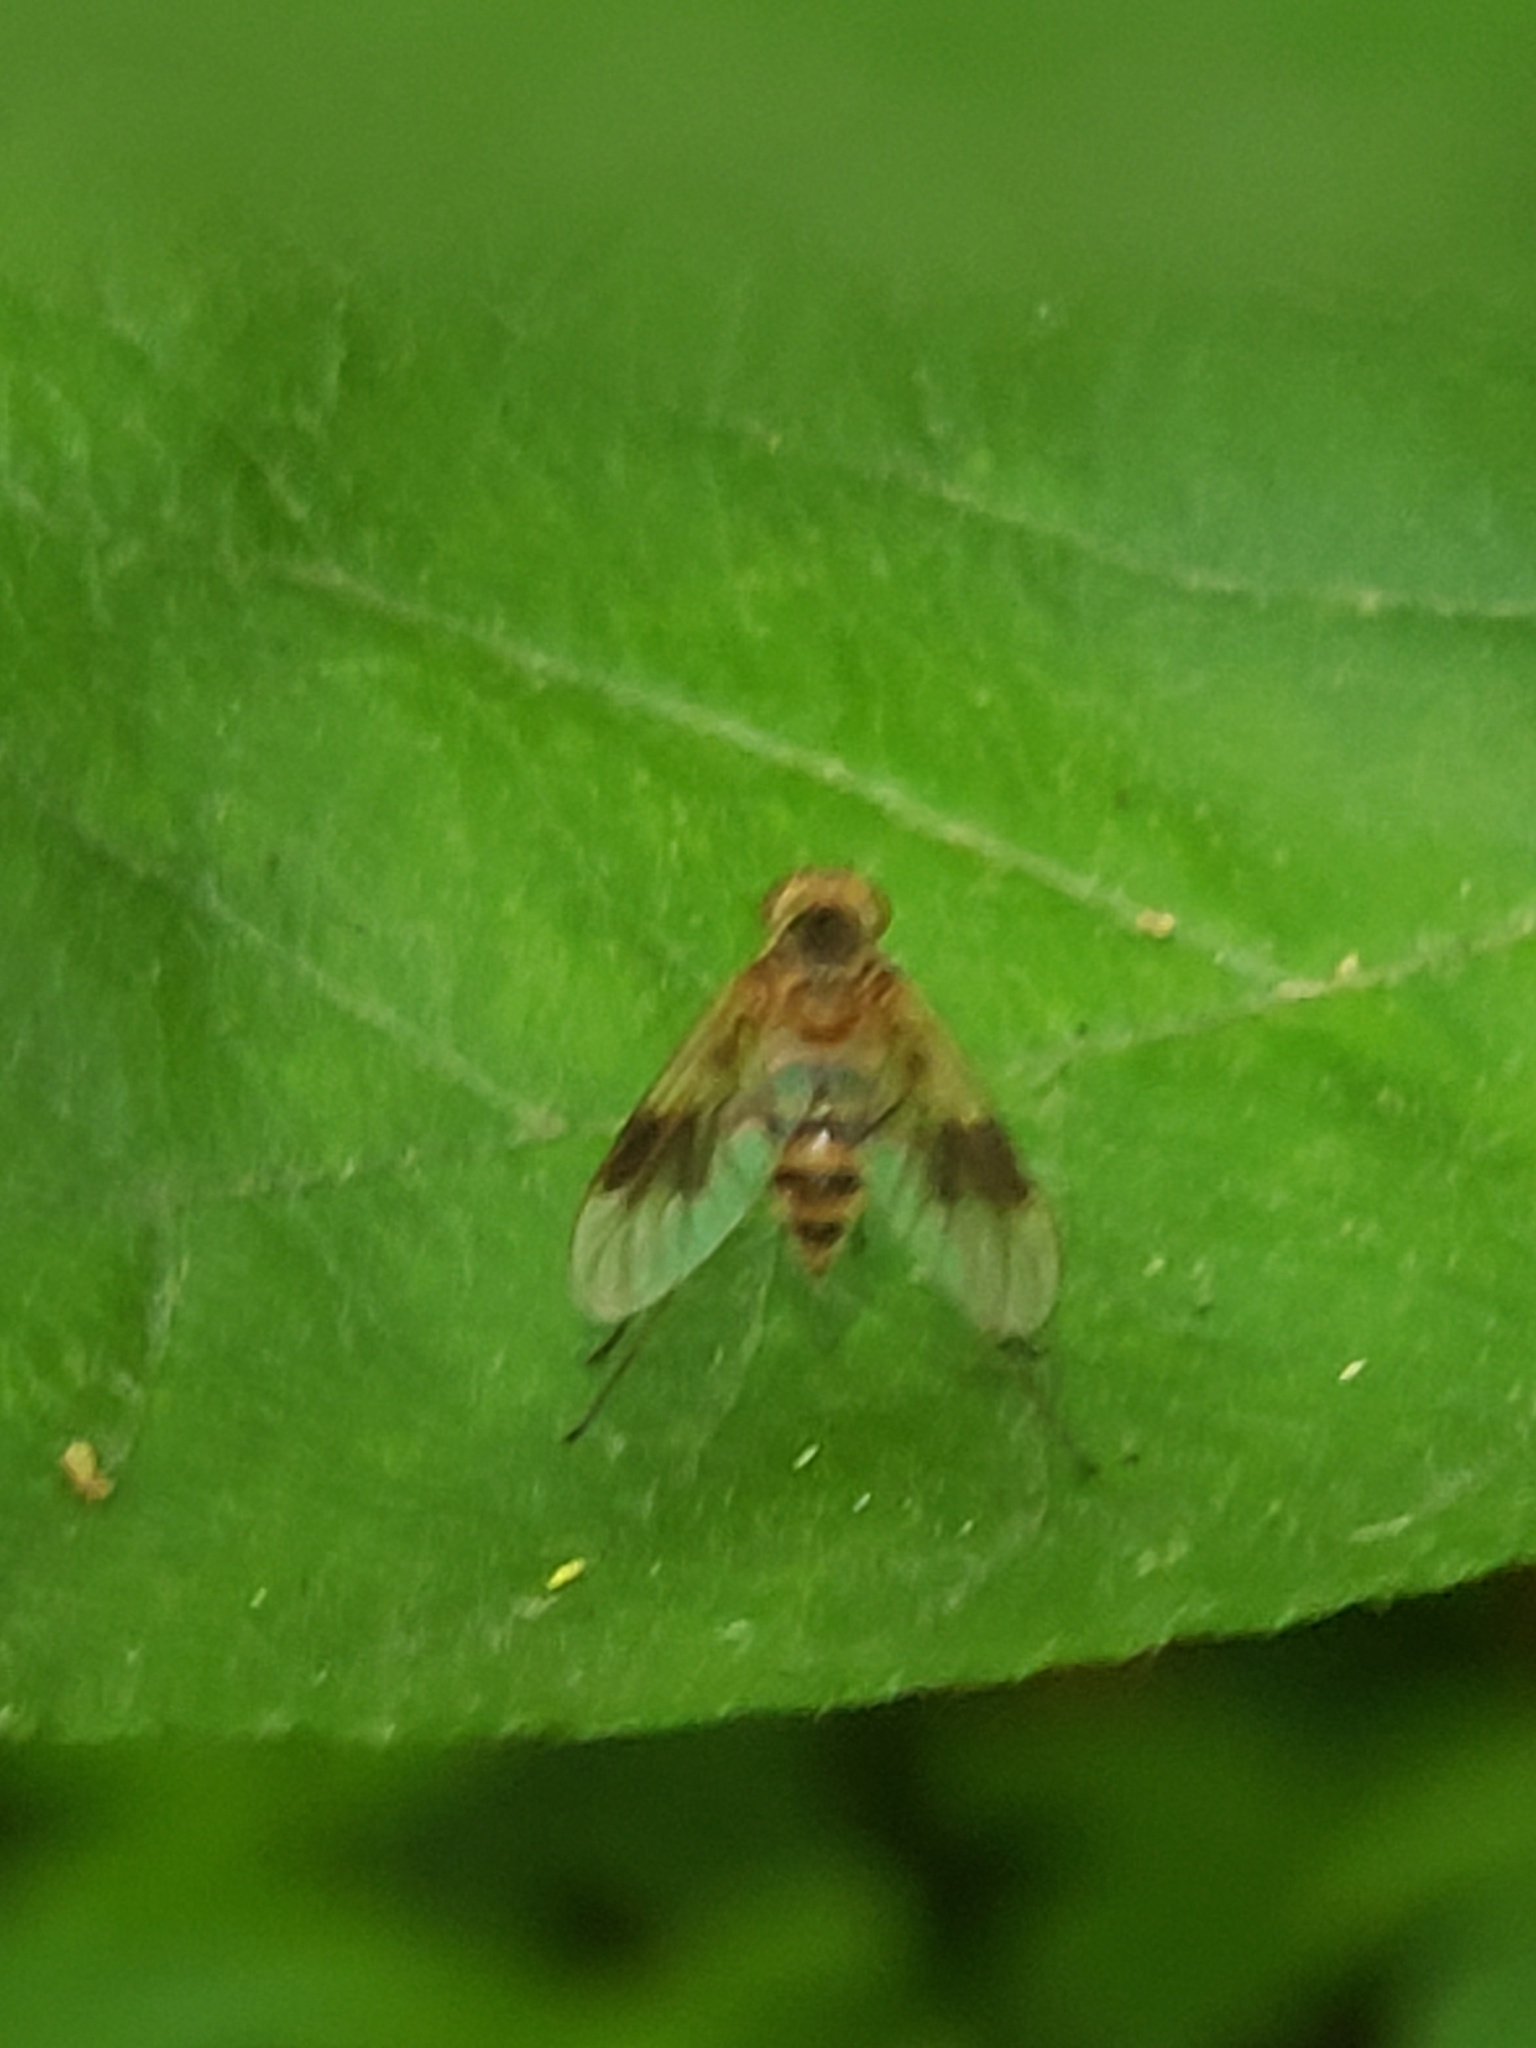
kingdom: Animalia
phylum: Arthropoda
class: Insecta
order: Diptera
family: Rhagionidae
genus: Chrysopilus
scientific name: Chrysopilus quadratus
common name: Quadrate snipe fly
